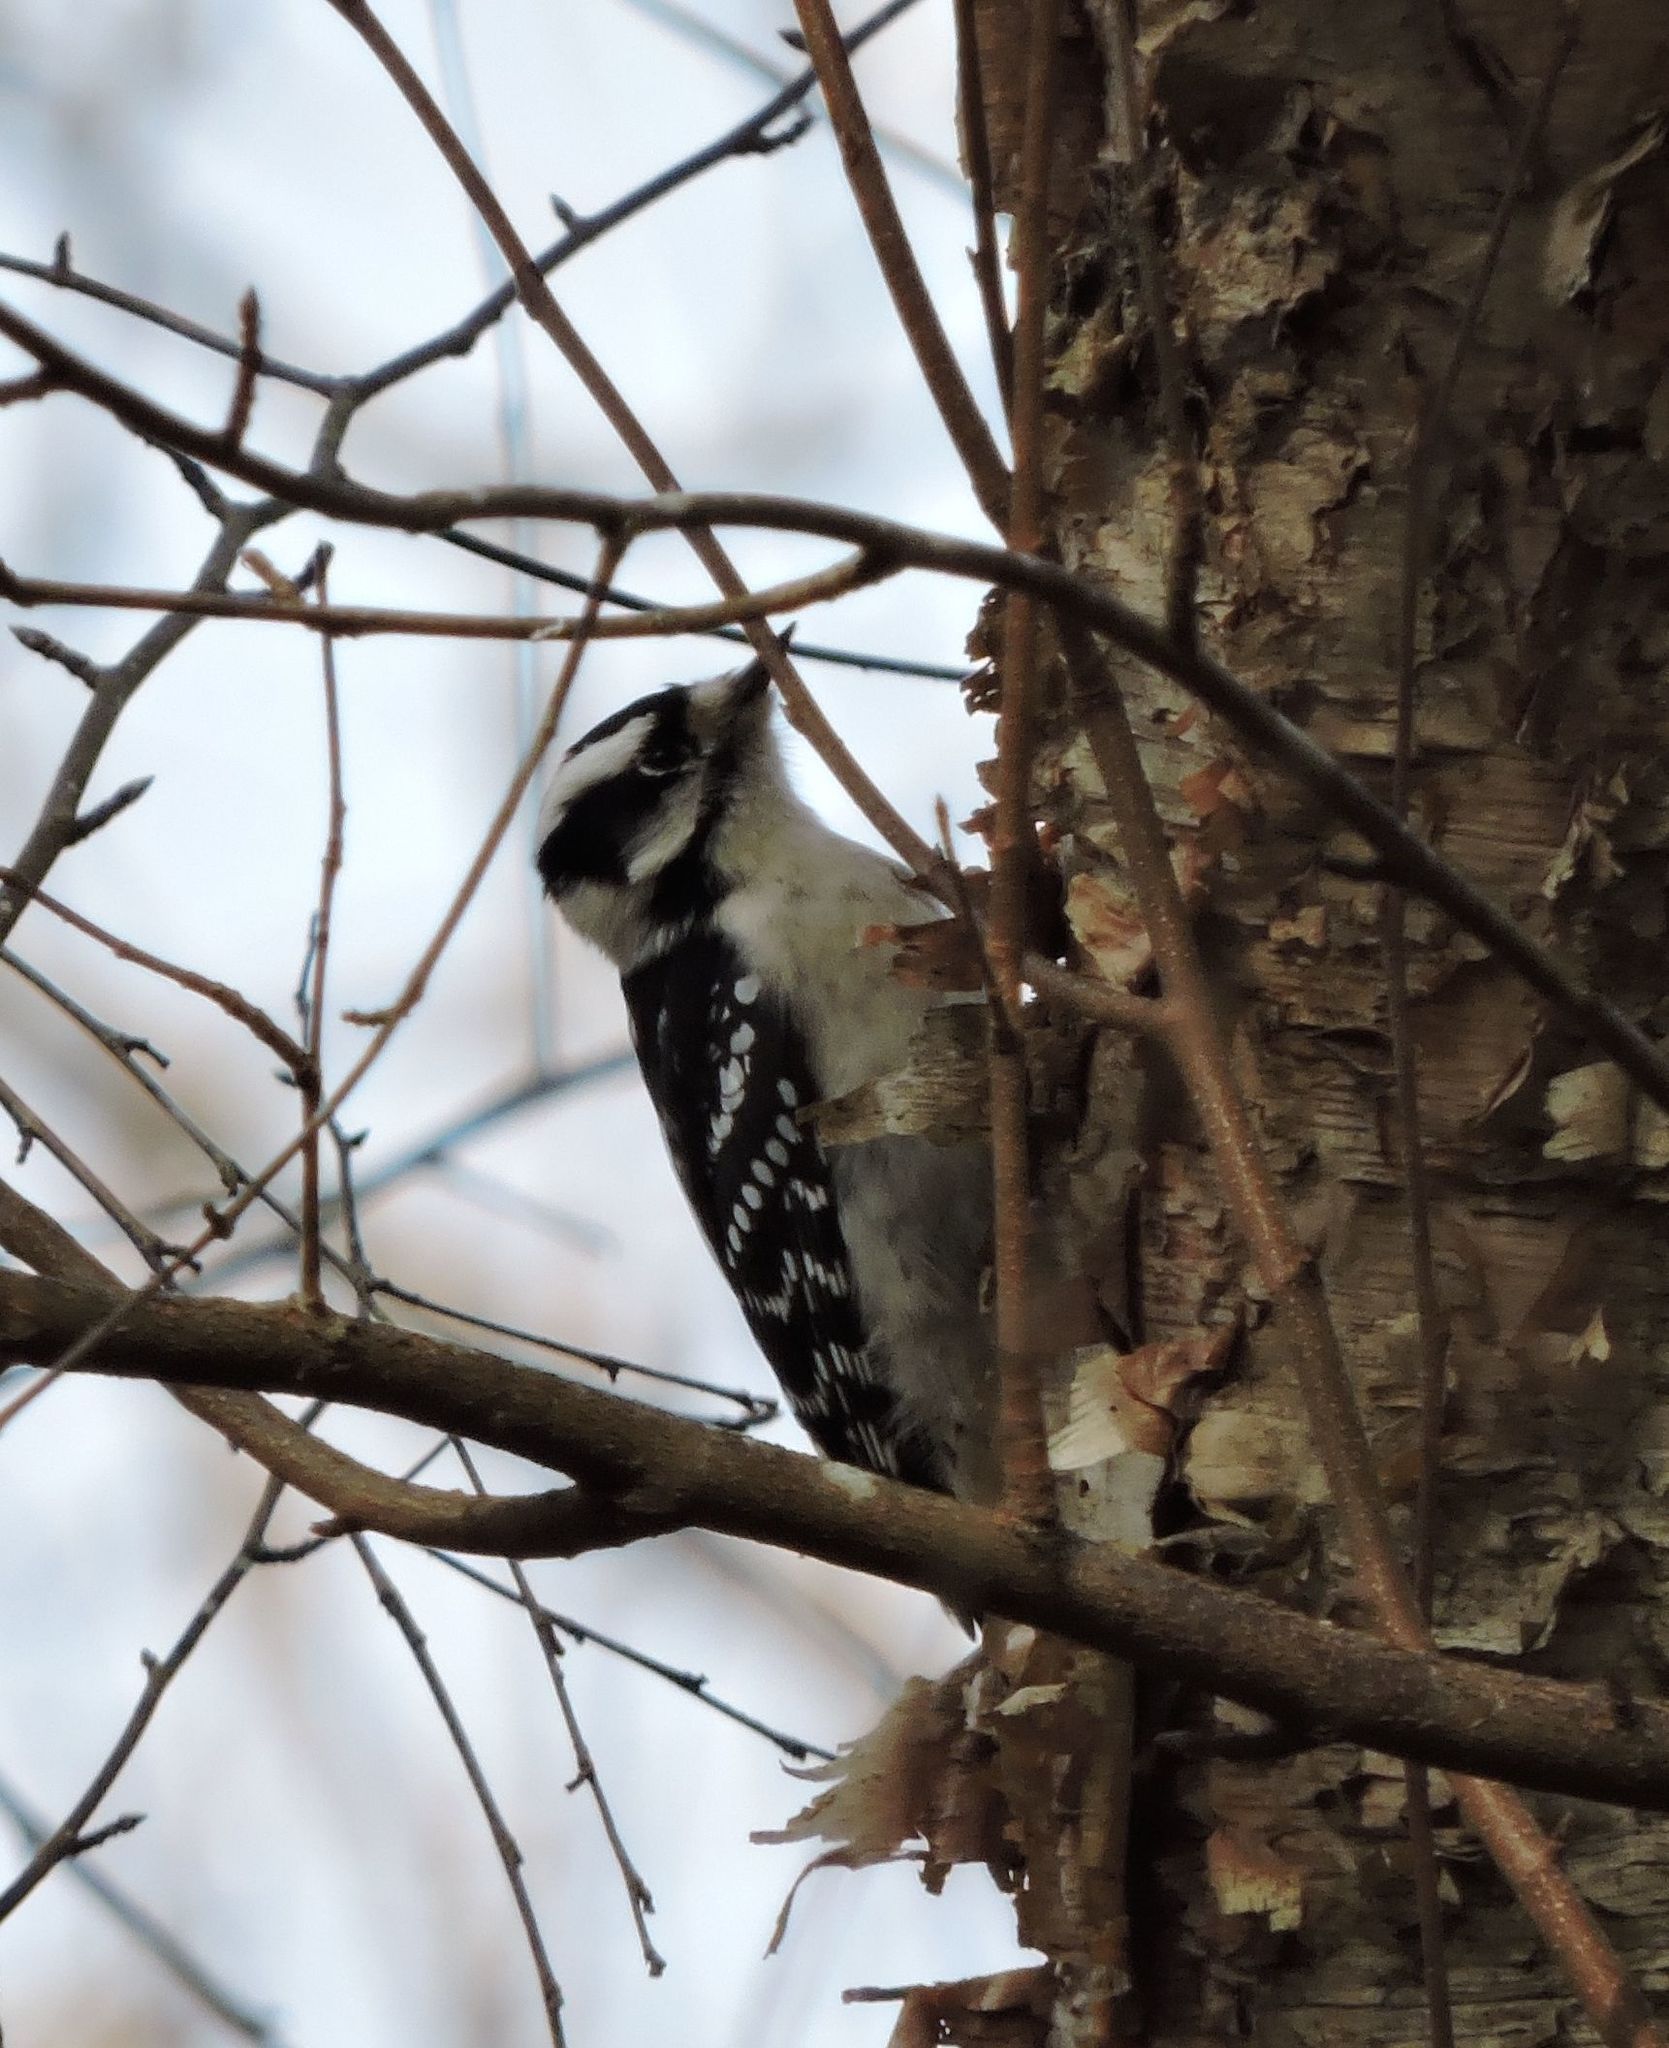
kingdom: Animalia
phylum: Chordata
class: Aves
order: Piciformes
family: Picidae
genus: Dryobates
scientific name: Dryobates pubescens
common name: Downy woodpecker
